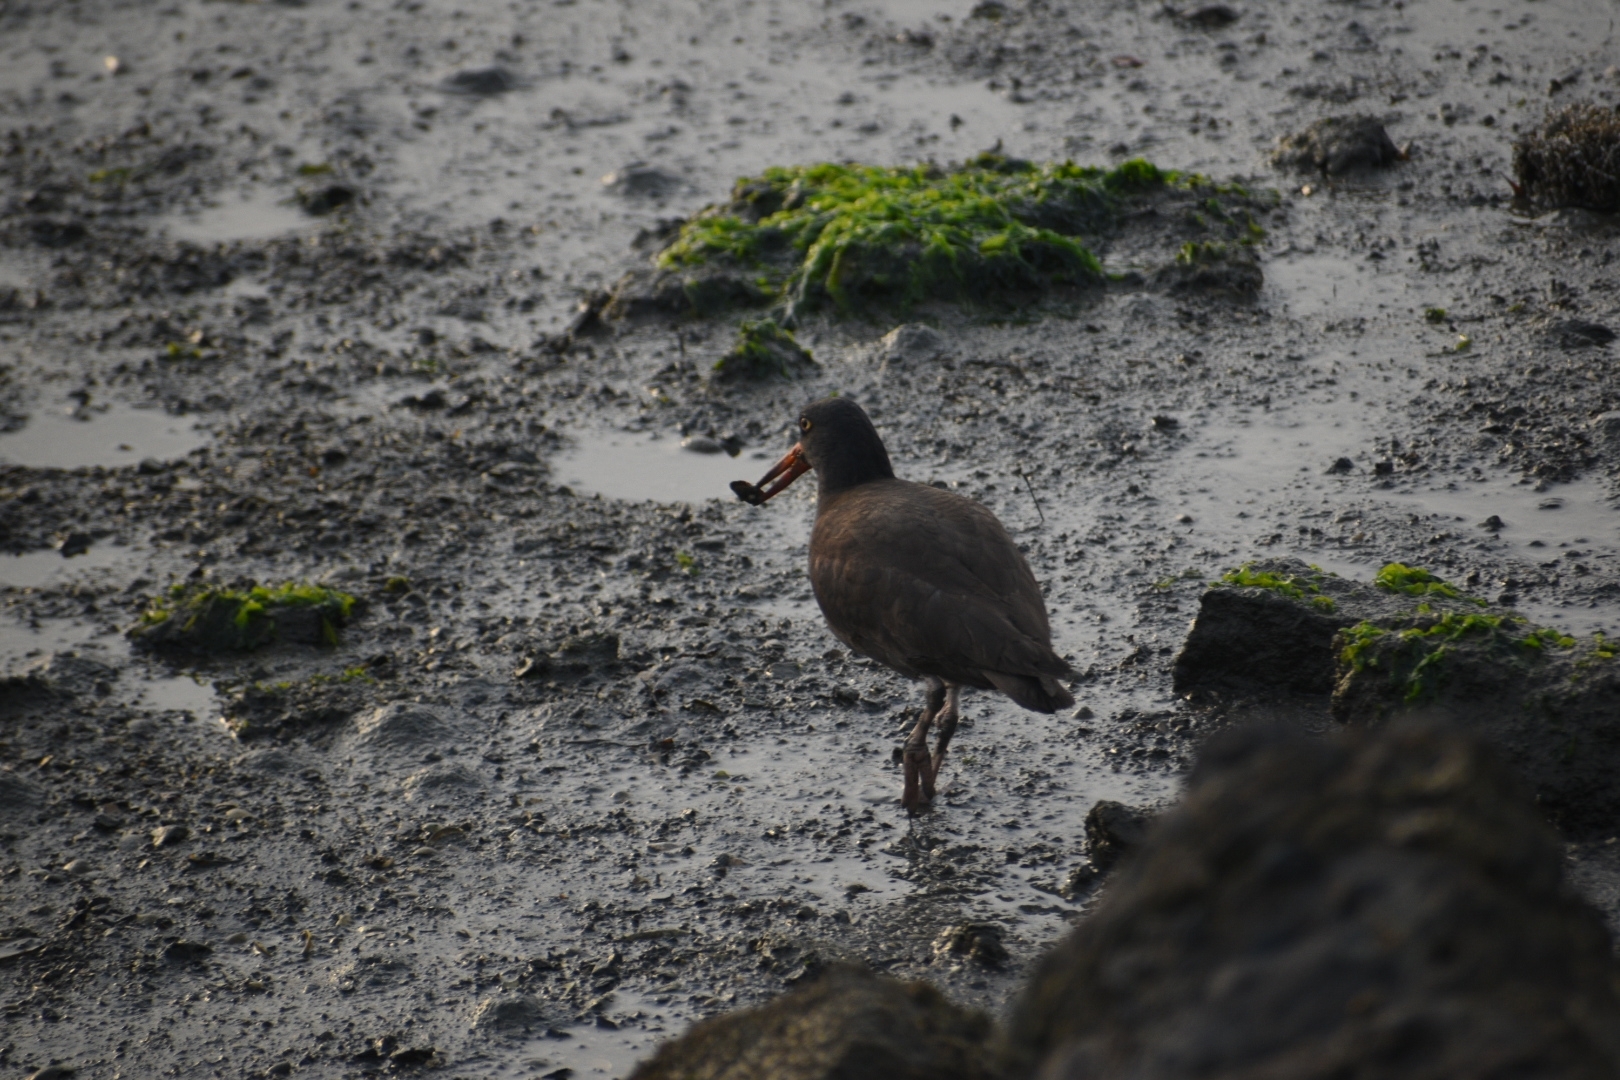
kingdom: Animalia
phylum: Chordata
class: Aves
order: Charadriiformes
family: Haematopodidae
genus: Haematopus
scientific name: Haematopus bachmani
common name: Black oystercatcher
